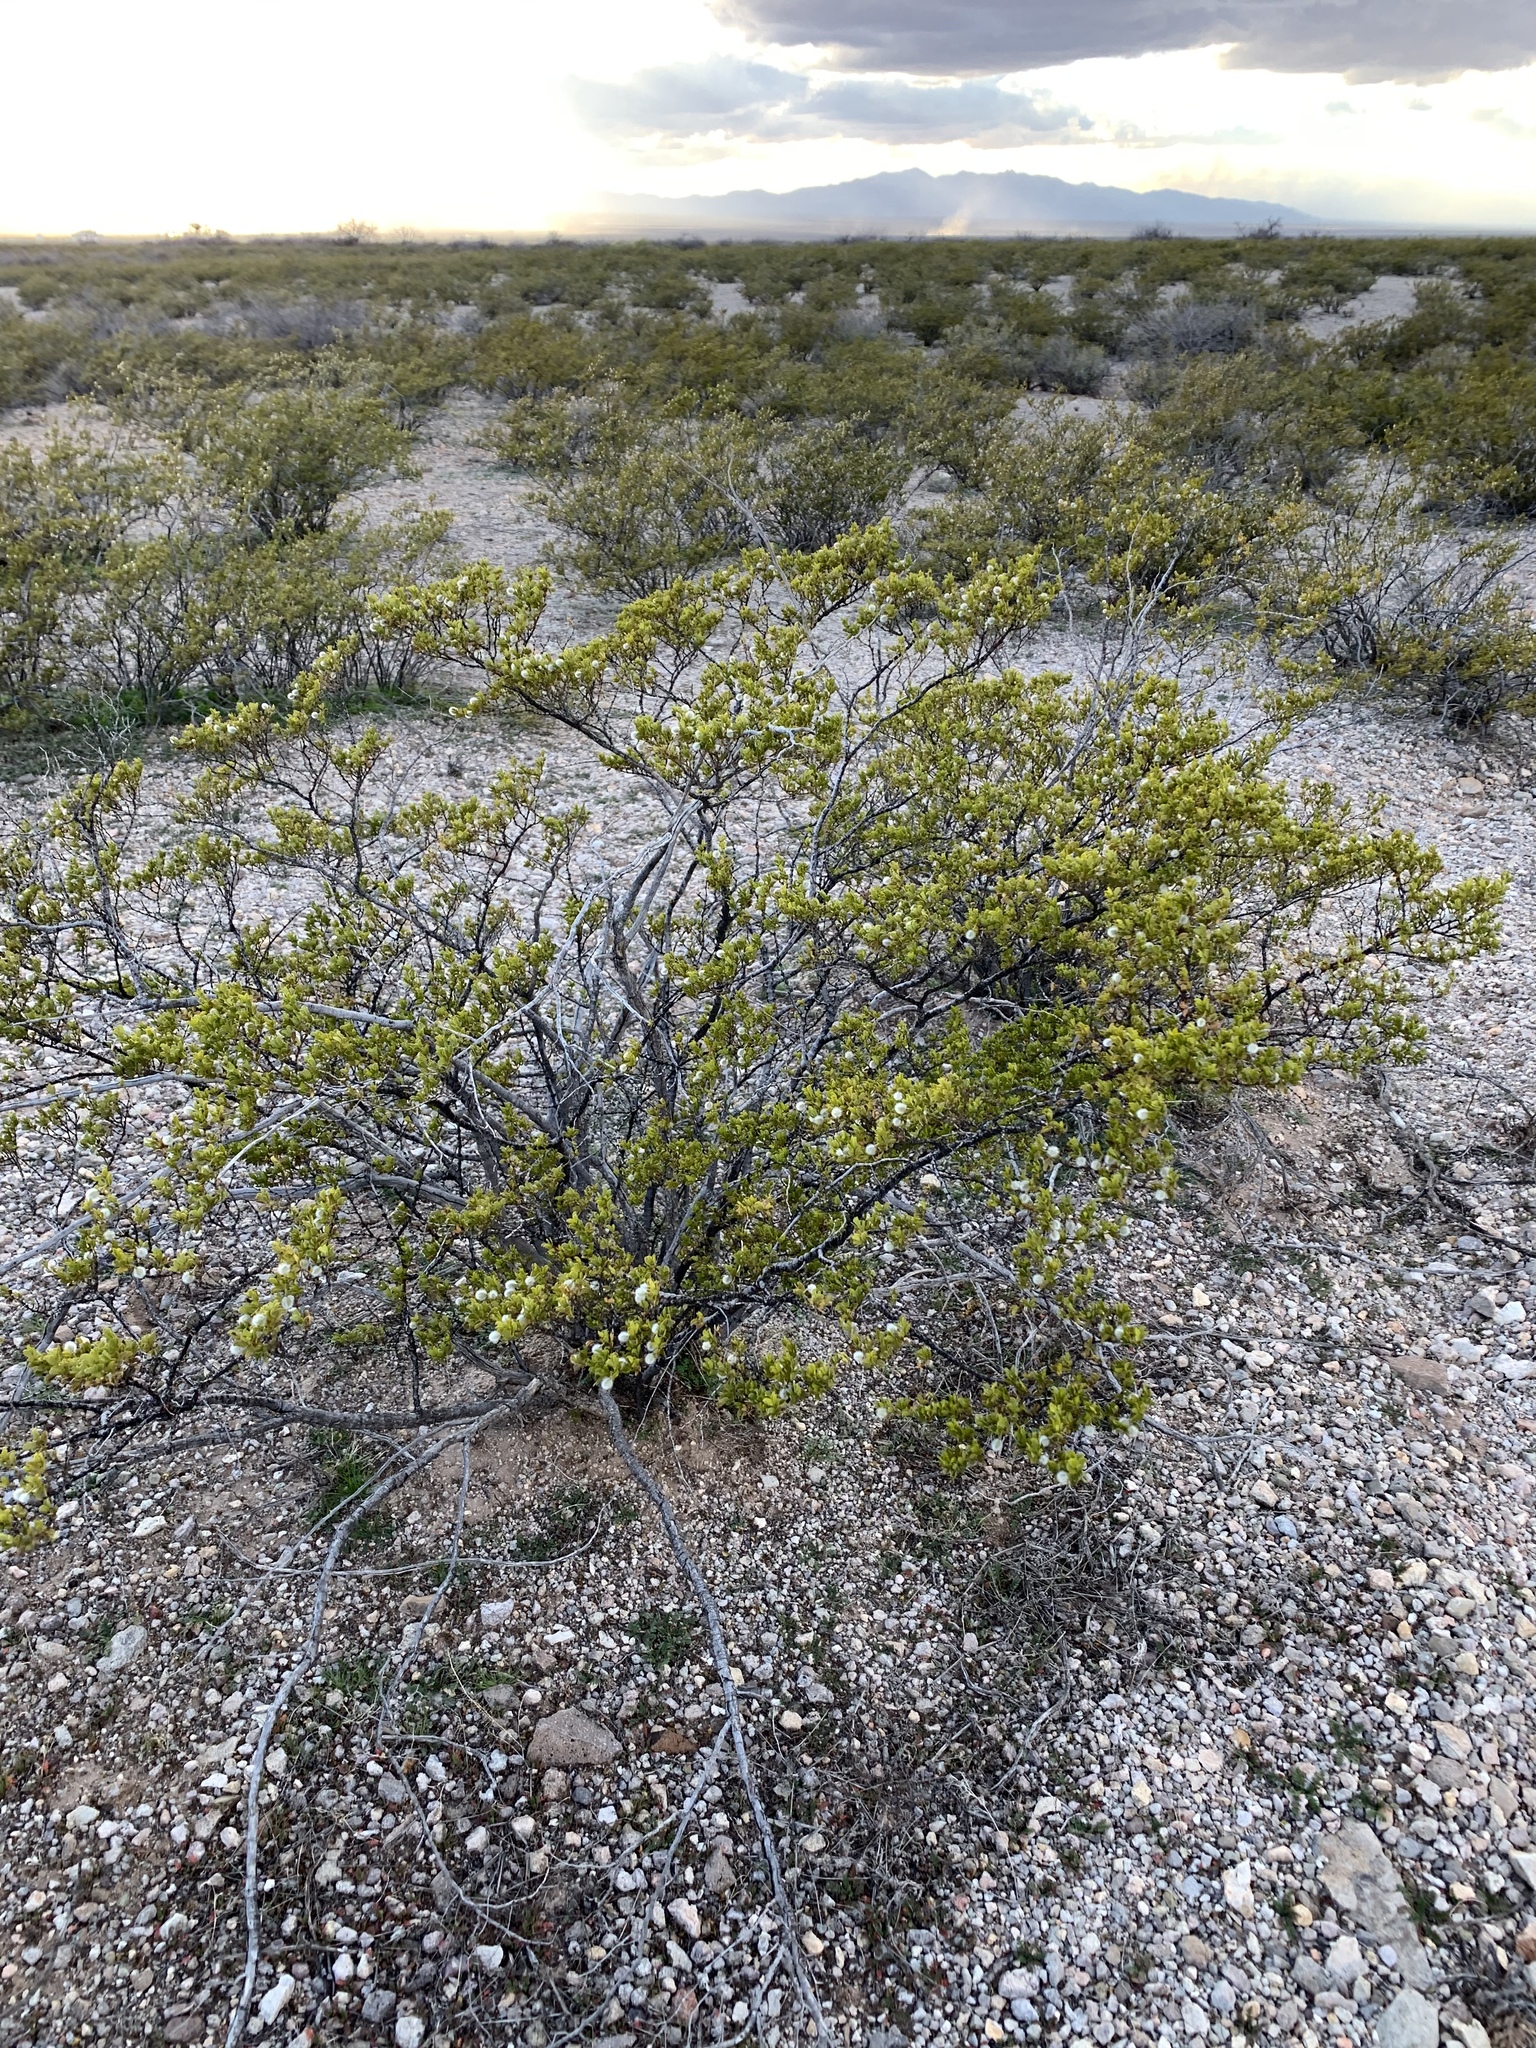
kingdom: Plantae
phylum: Tracheophyta
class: Magnoliopsida
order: Zygophyllales
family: Zygophyllaceae
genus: Larrea
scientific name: Larrea tridentata
